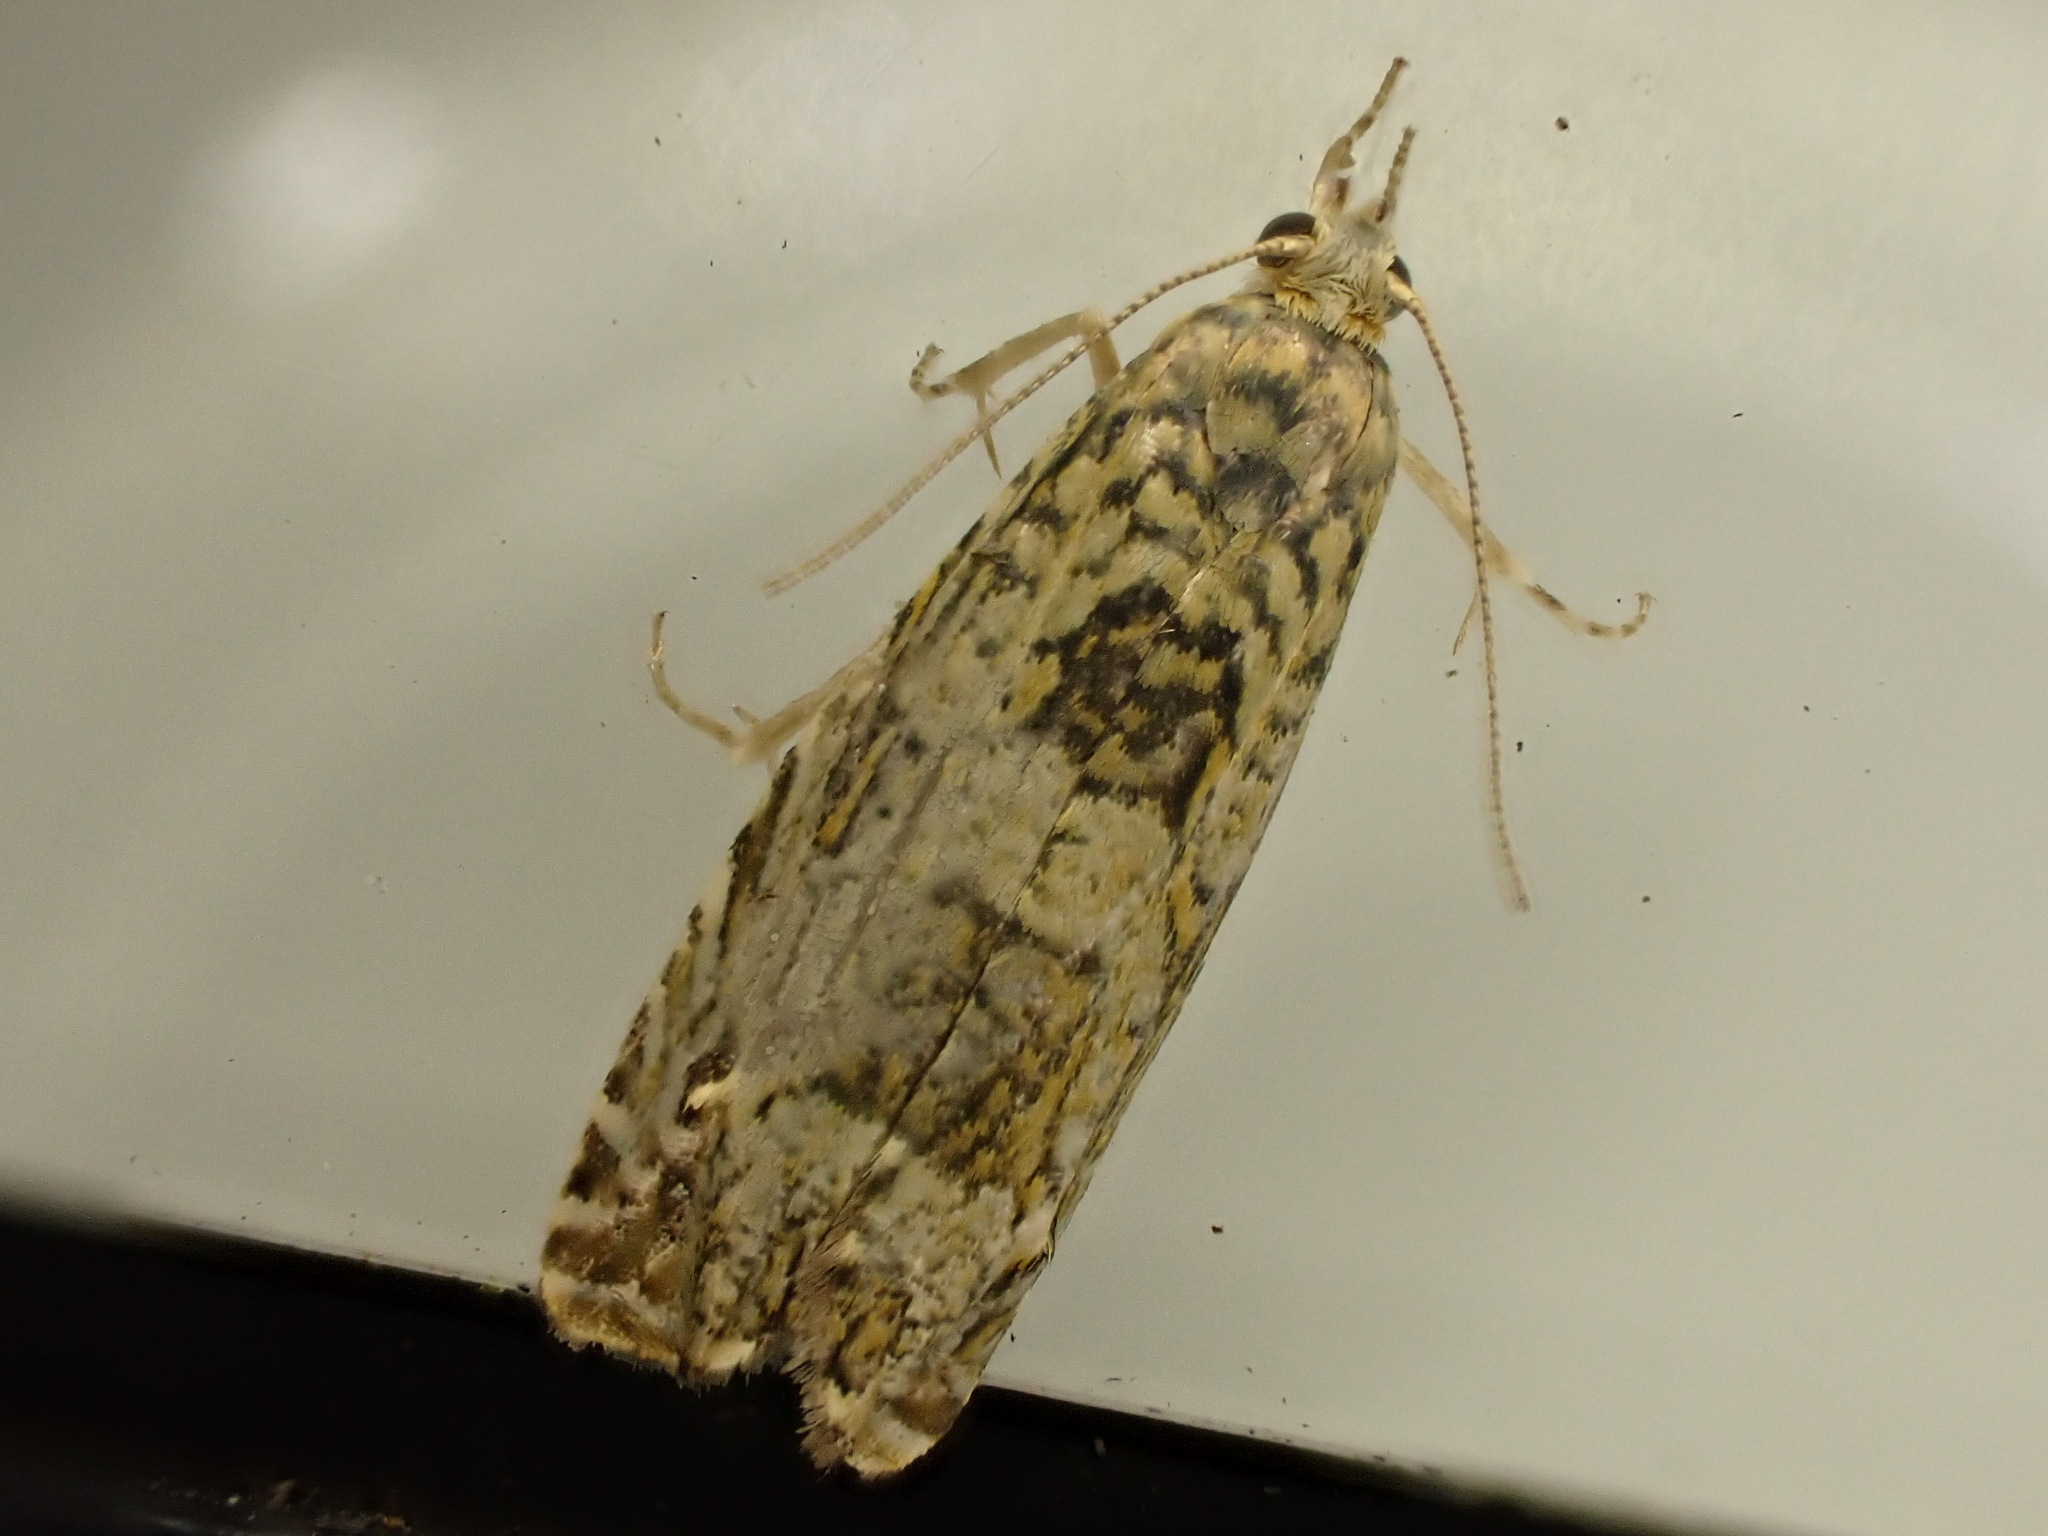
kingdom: Animalia
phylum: Arthropoda
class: Insecta
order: Lepidoptera
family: Plutellidae
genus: Doxophyrtis
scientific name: Doxophyrtis hydrocosma
